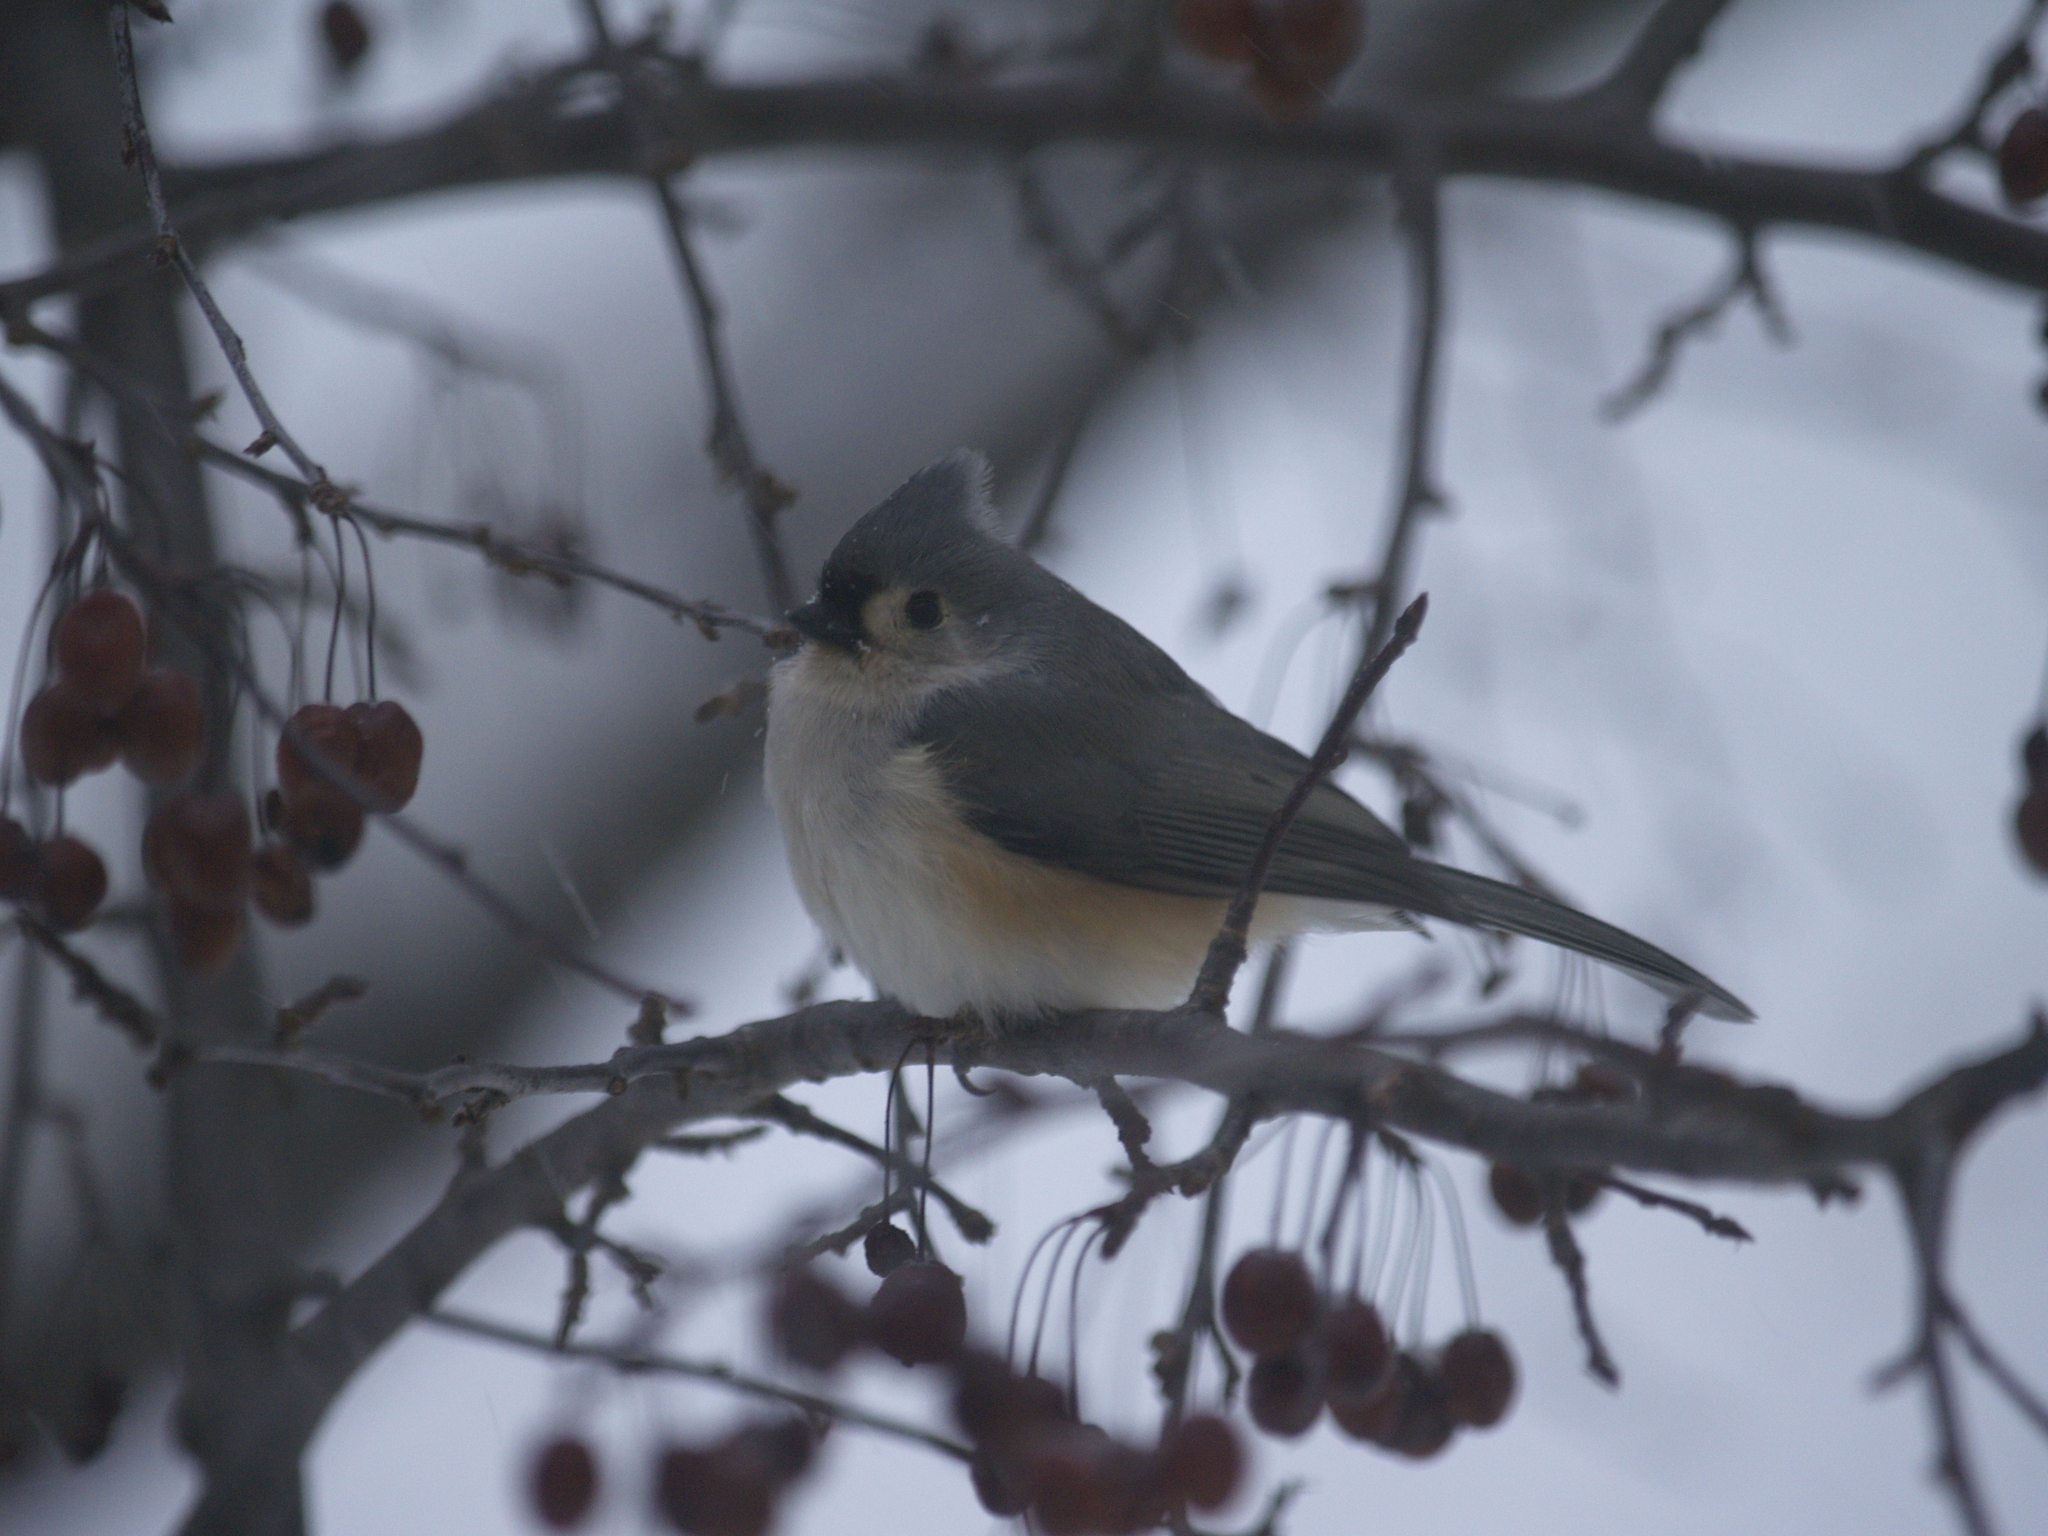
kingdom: Animalia
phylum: Chordata
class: Aves
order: Passeriformes
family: Paridae
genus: Baeolophus
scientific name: Baeolophus bicolor
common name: Tufted titmouse
